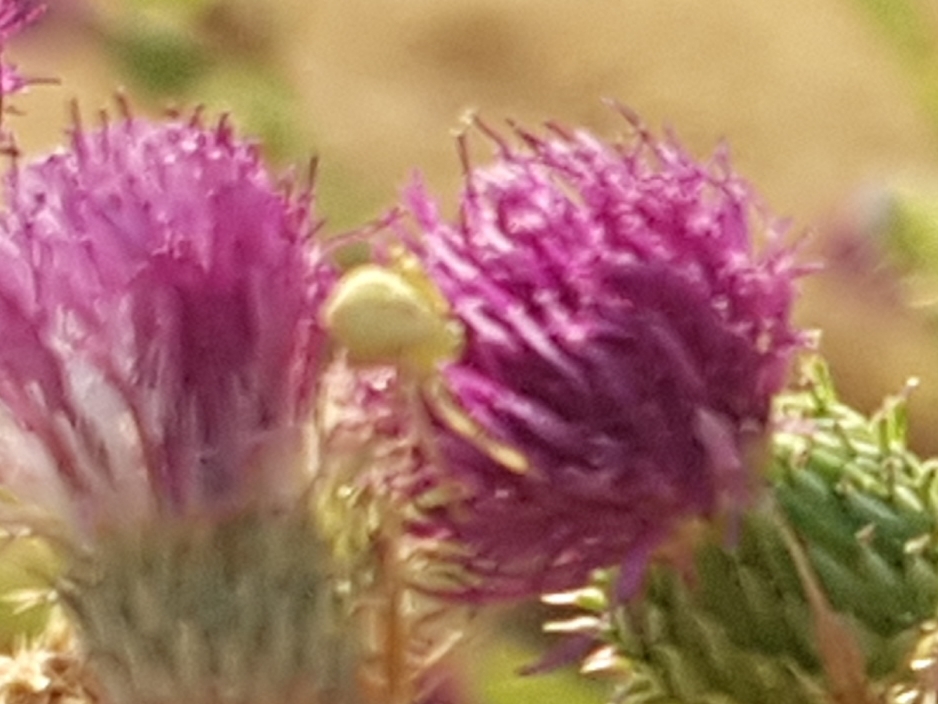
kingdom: Animalia
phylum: Arthropoda
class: Arachnida
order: Araneae
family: Thomisidae
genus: Misumena
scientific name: Misumena vatia
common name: Goldenrod crab spider
